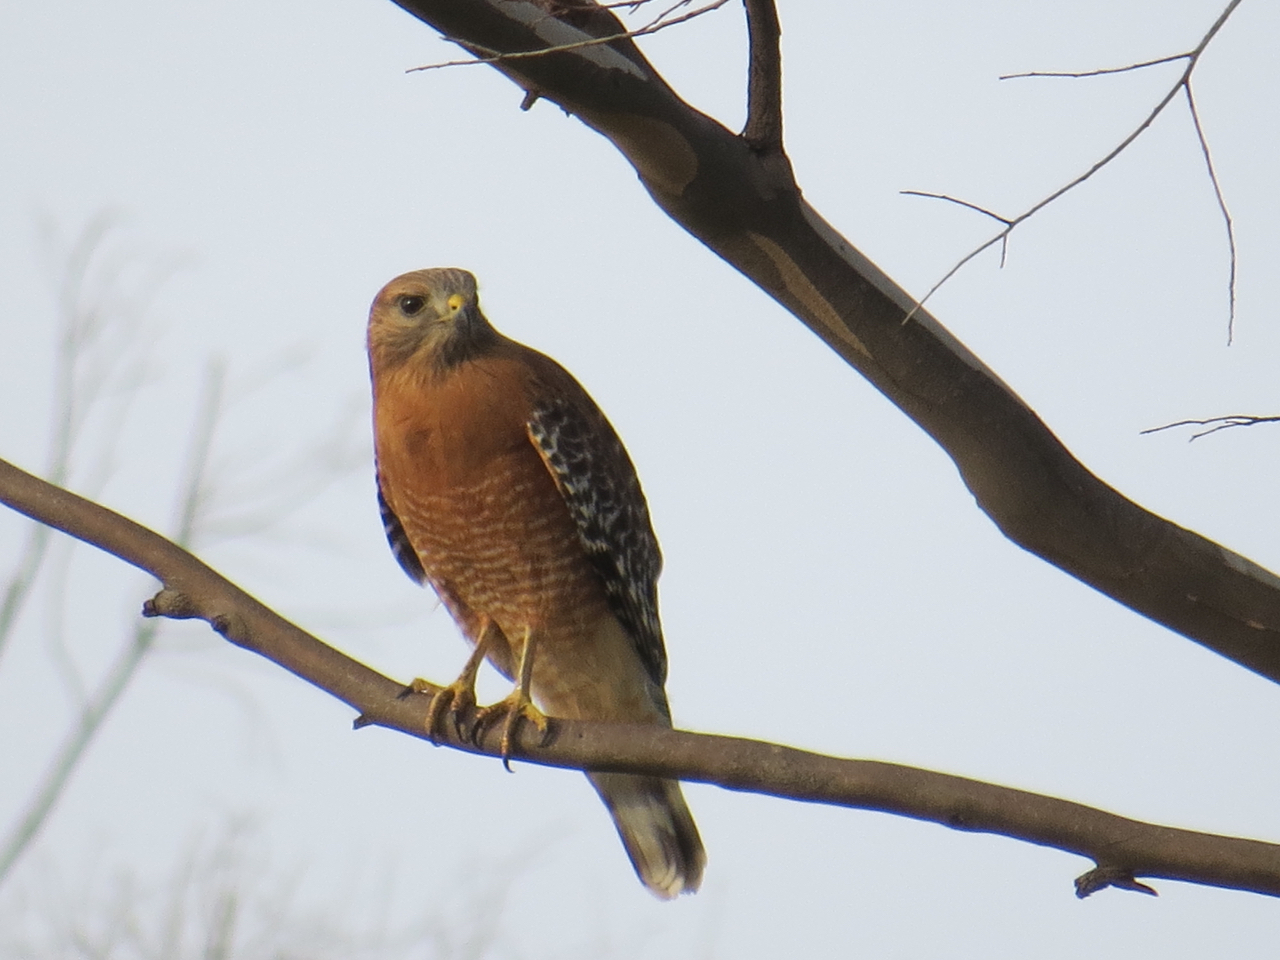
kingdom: Animalia
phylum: Chordata
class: Aves
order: Accipitriformes
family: Accipitridae
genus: Buteo
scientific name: Buteo lineatus
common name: Red-shouldered hawk
